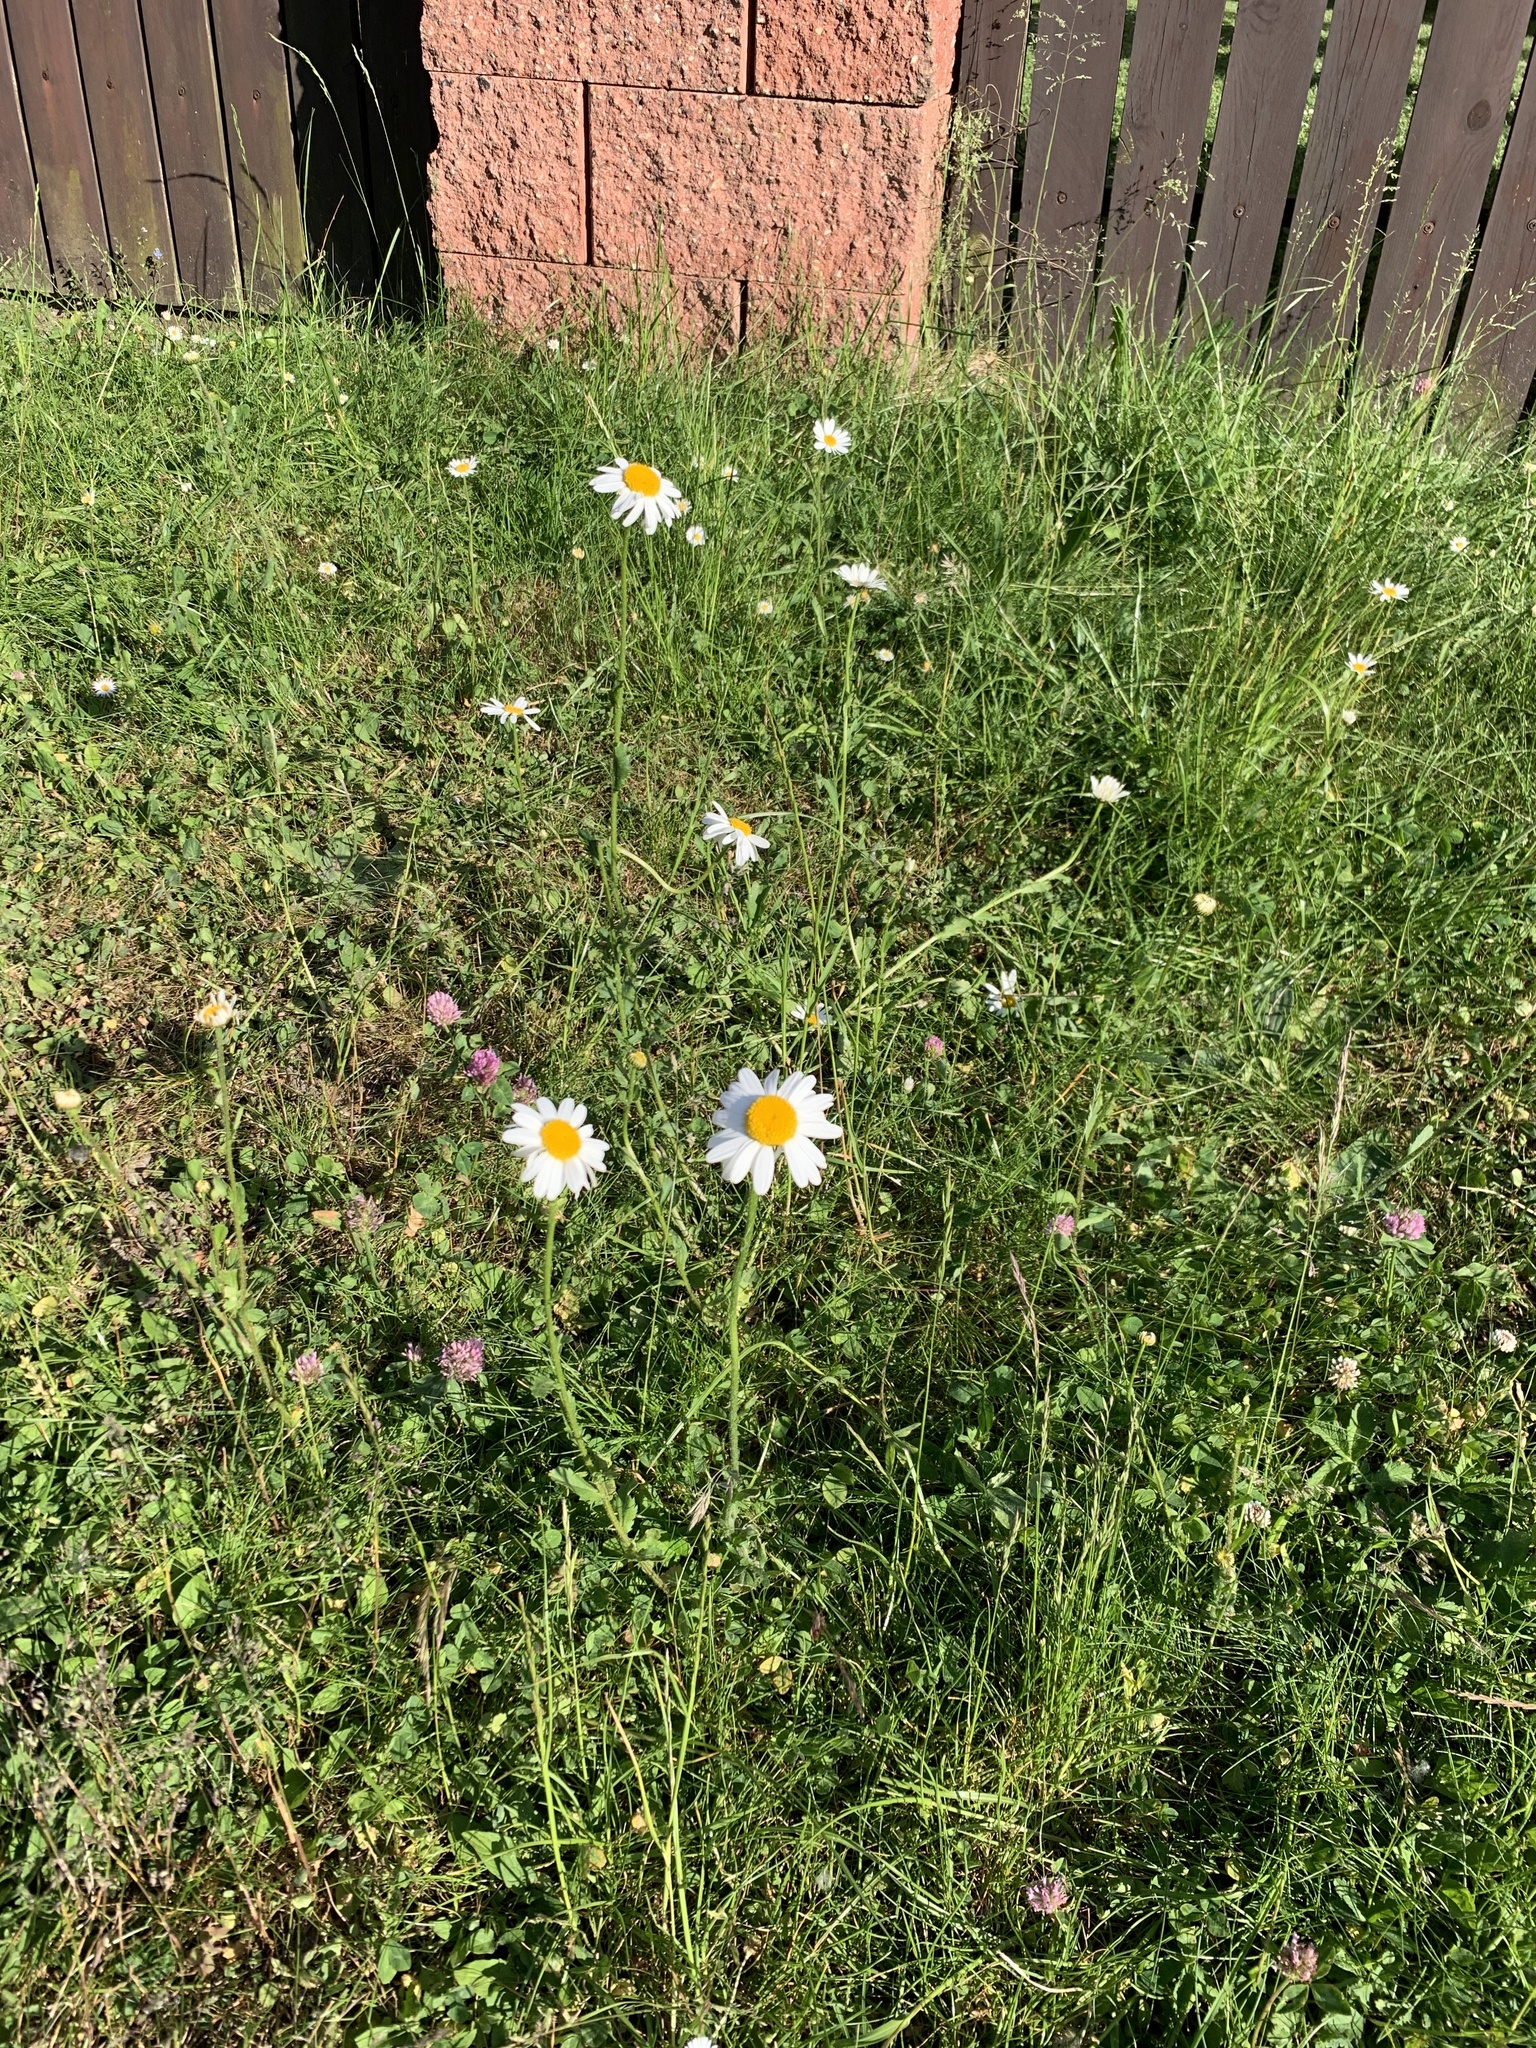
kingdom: Plantae
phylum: Tracheophyta
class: Magnoliopsida
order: Asterales
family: Asteraceae
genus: Leucanthemum
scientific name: Leucanthemum vulgare
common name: Oxeye daisy
